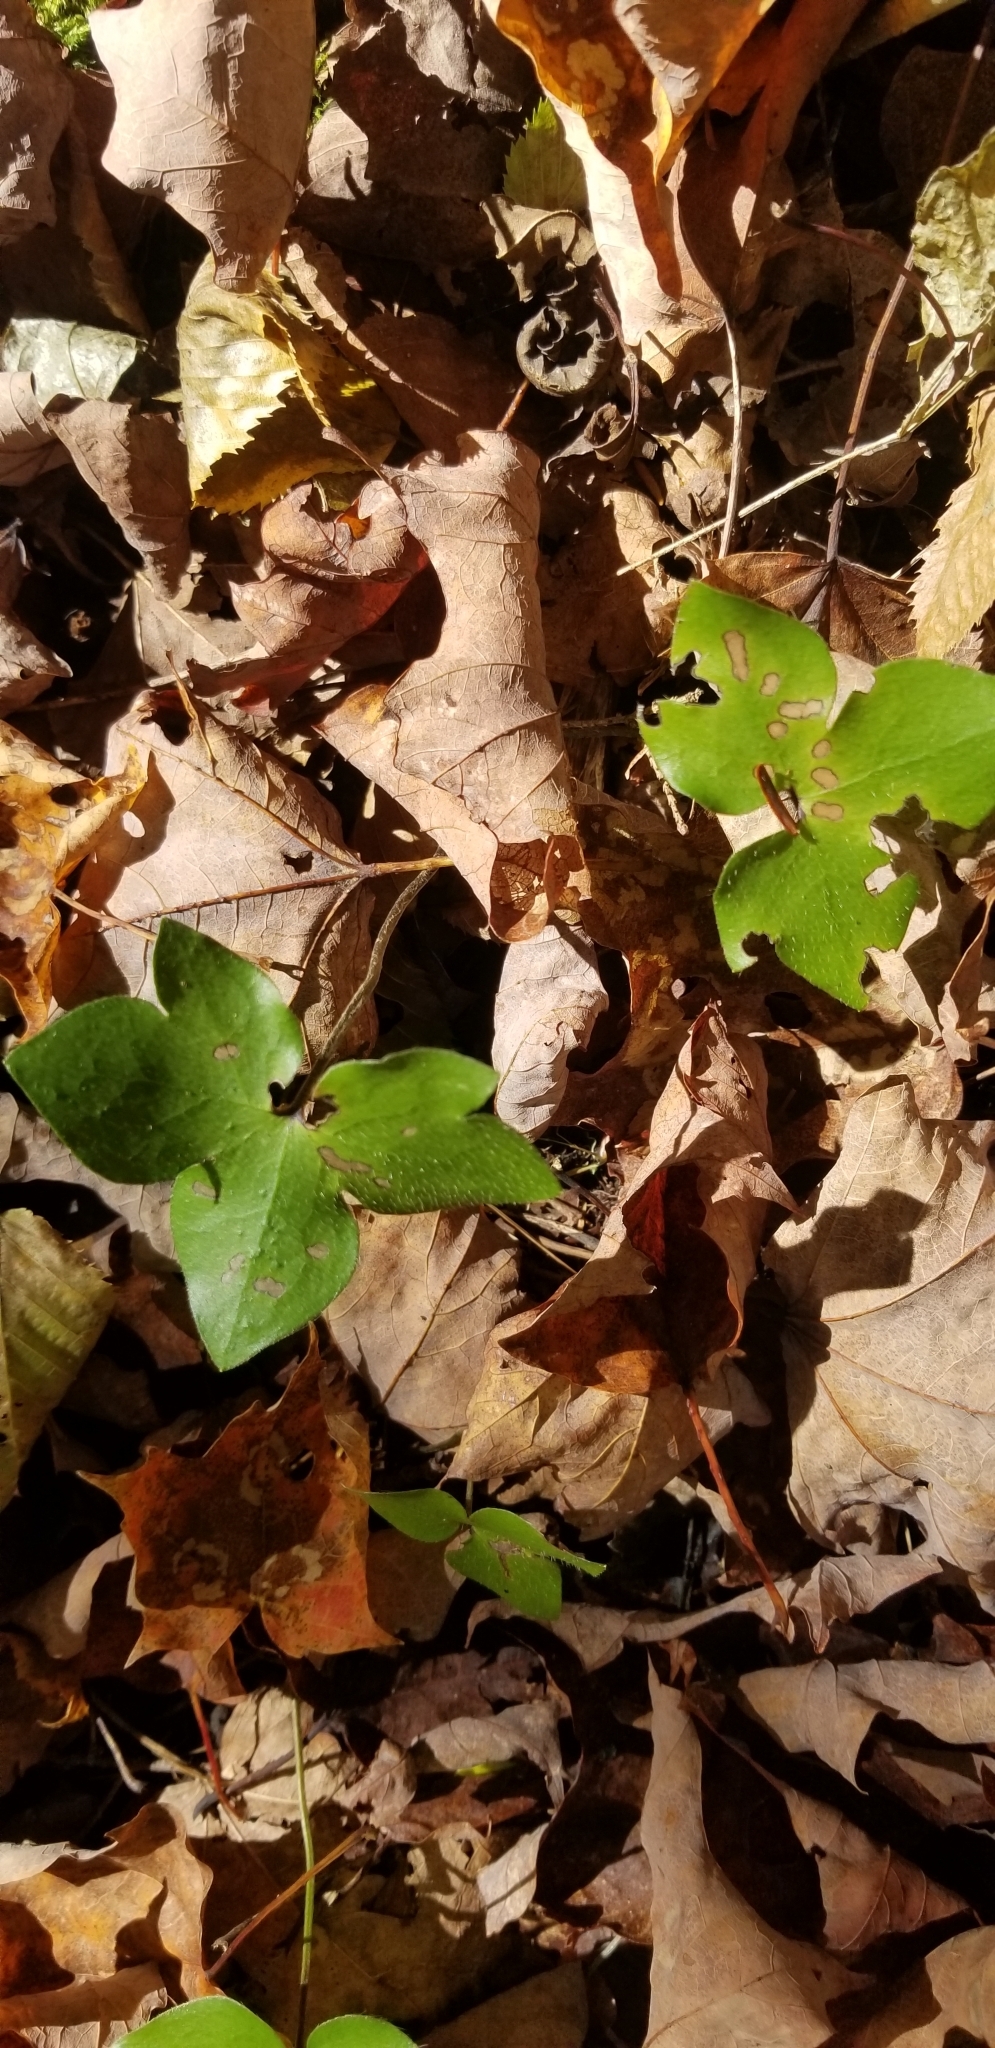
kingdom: Plantae
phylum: Tracheophyta
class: Magnoliopsida
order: Ranunculales
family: Ranunculaceae
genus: Hepatica
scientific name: Hepatica acutiloba
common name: Sharp-lobed hepatica
